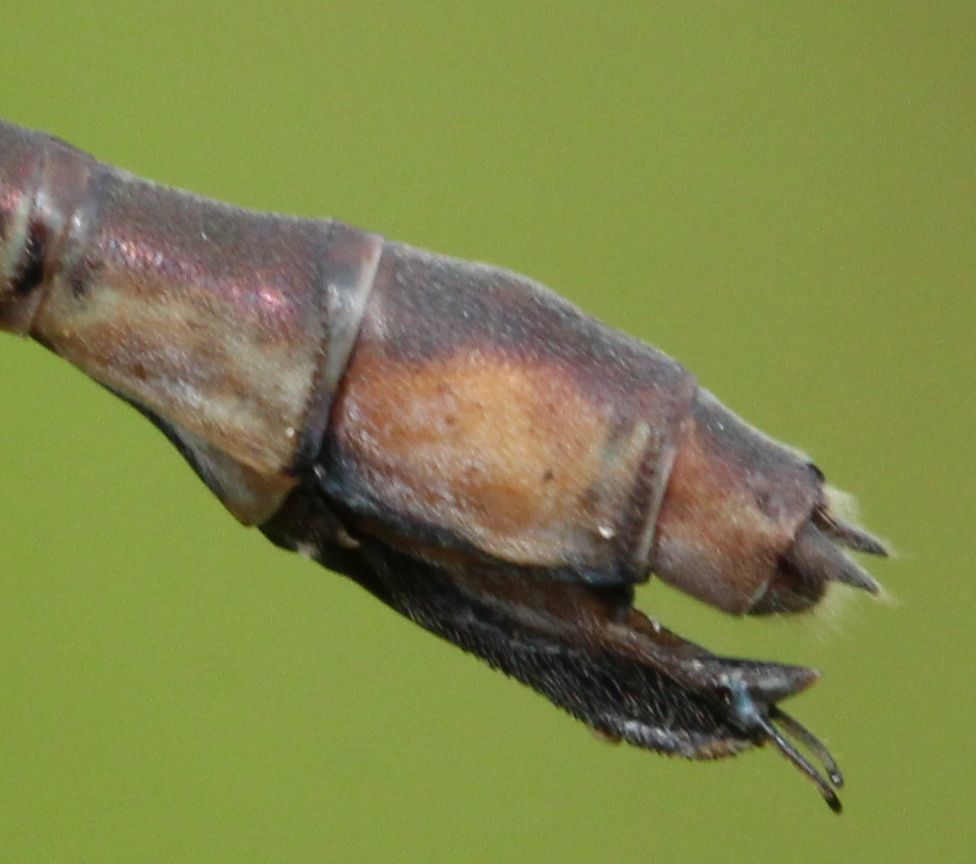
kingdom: Animalia
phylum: Arthropoda
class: Insecta
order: Odonata
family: Lestidae
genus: Lestes
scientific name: Lestes forcipatus
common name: Sweetflag spreadwing
